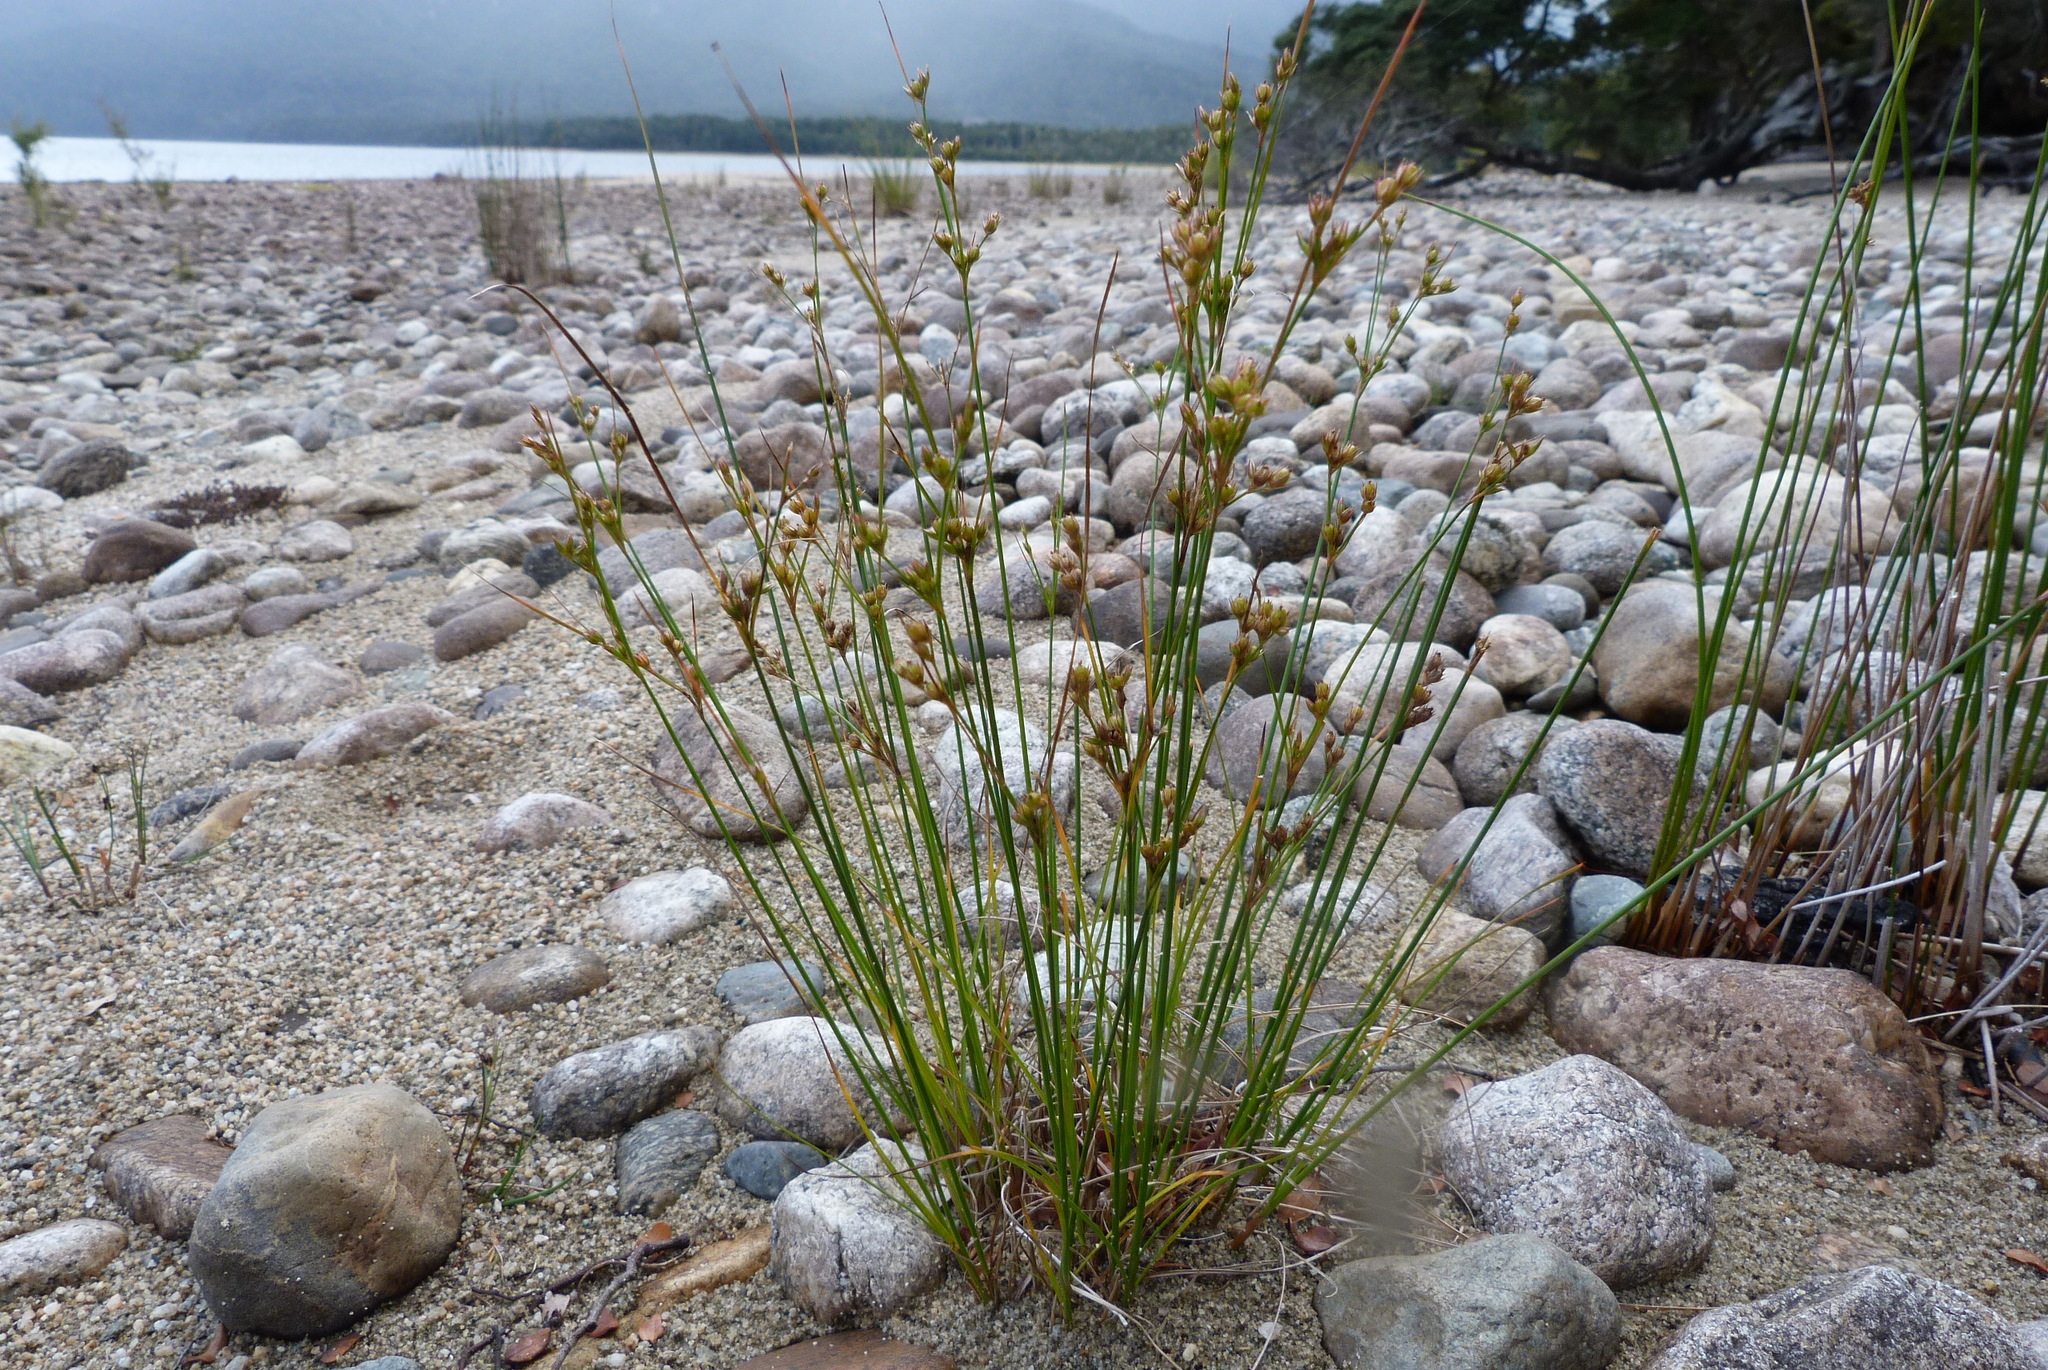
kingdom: Plantae
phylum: Tracheophyta
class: Liliopsida
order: Poales
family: Juncaceae
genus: Juncus
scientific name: Juncus tenuis
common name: Slender rush
